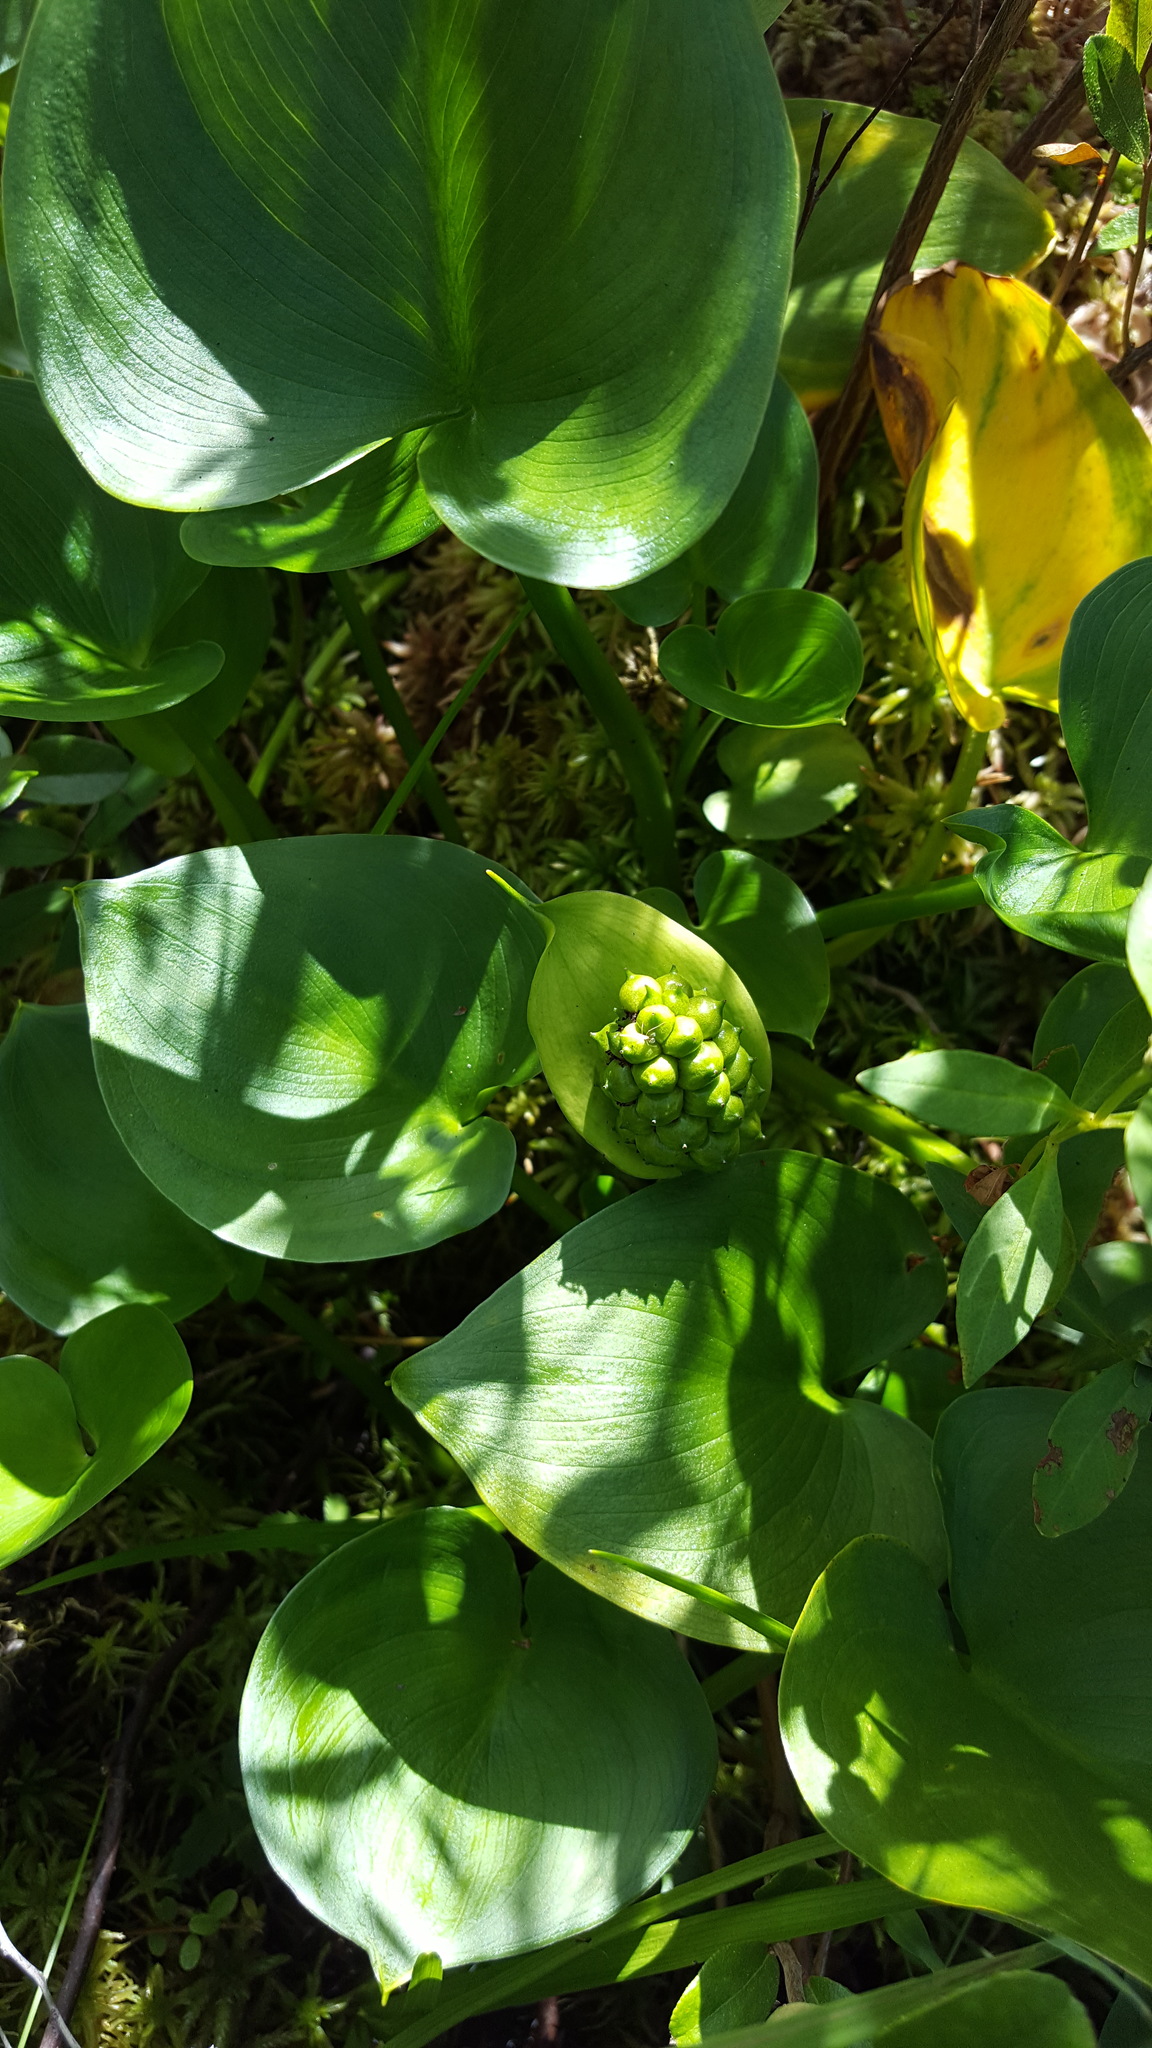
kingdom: Plantae
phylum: Tracheophyta
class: Liliopsida
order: Alismatales
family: Araceae
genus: Calla
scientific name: Calla palustris
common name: Bog arum
